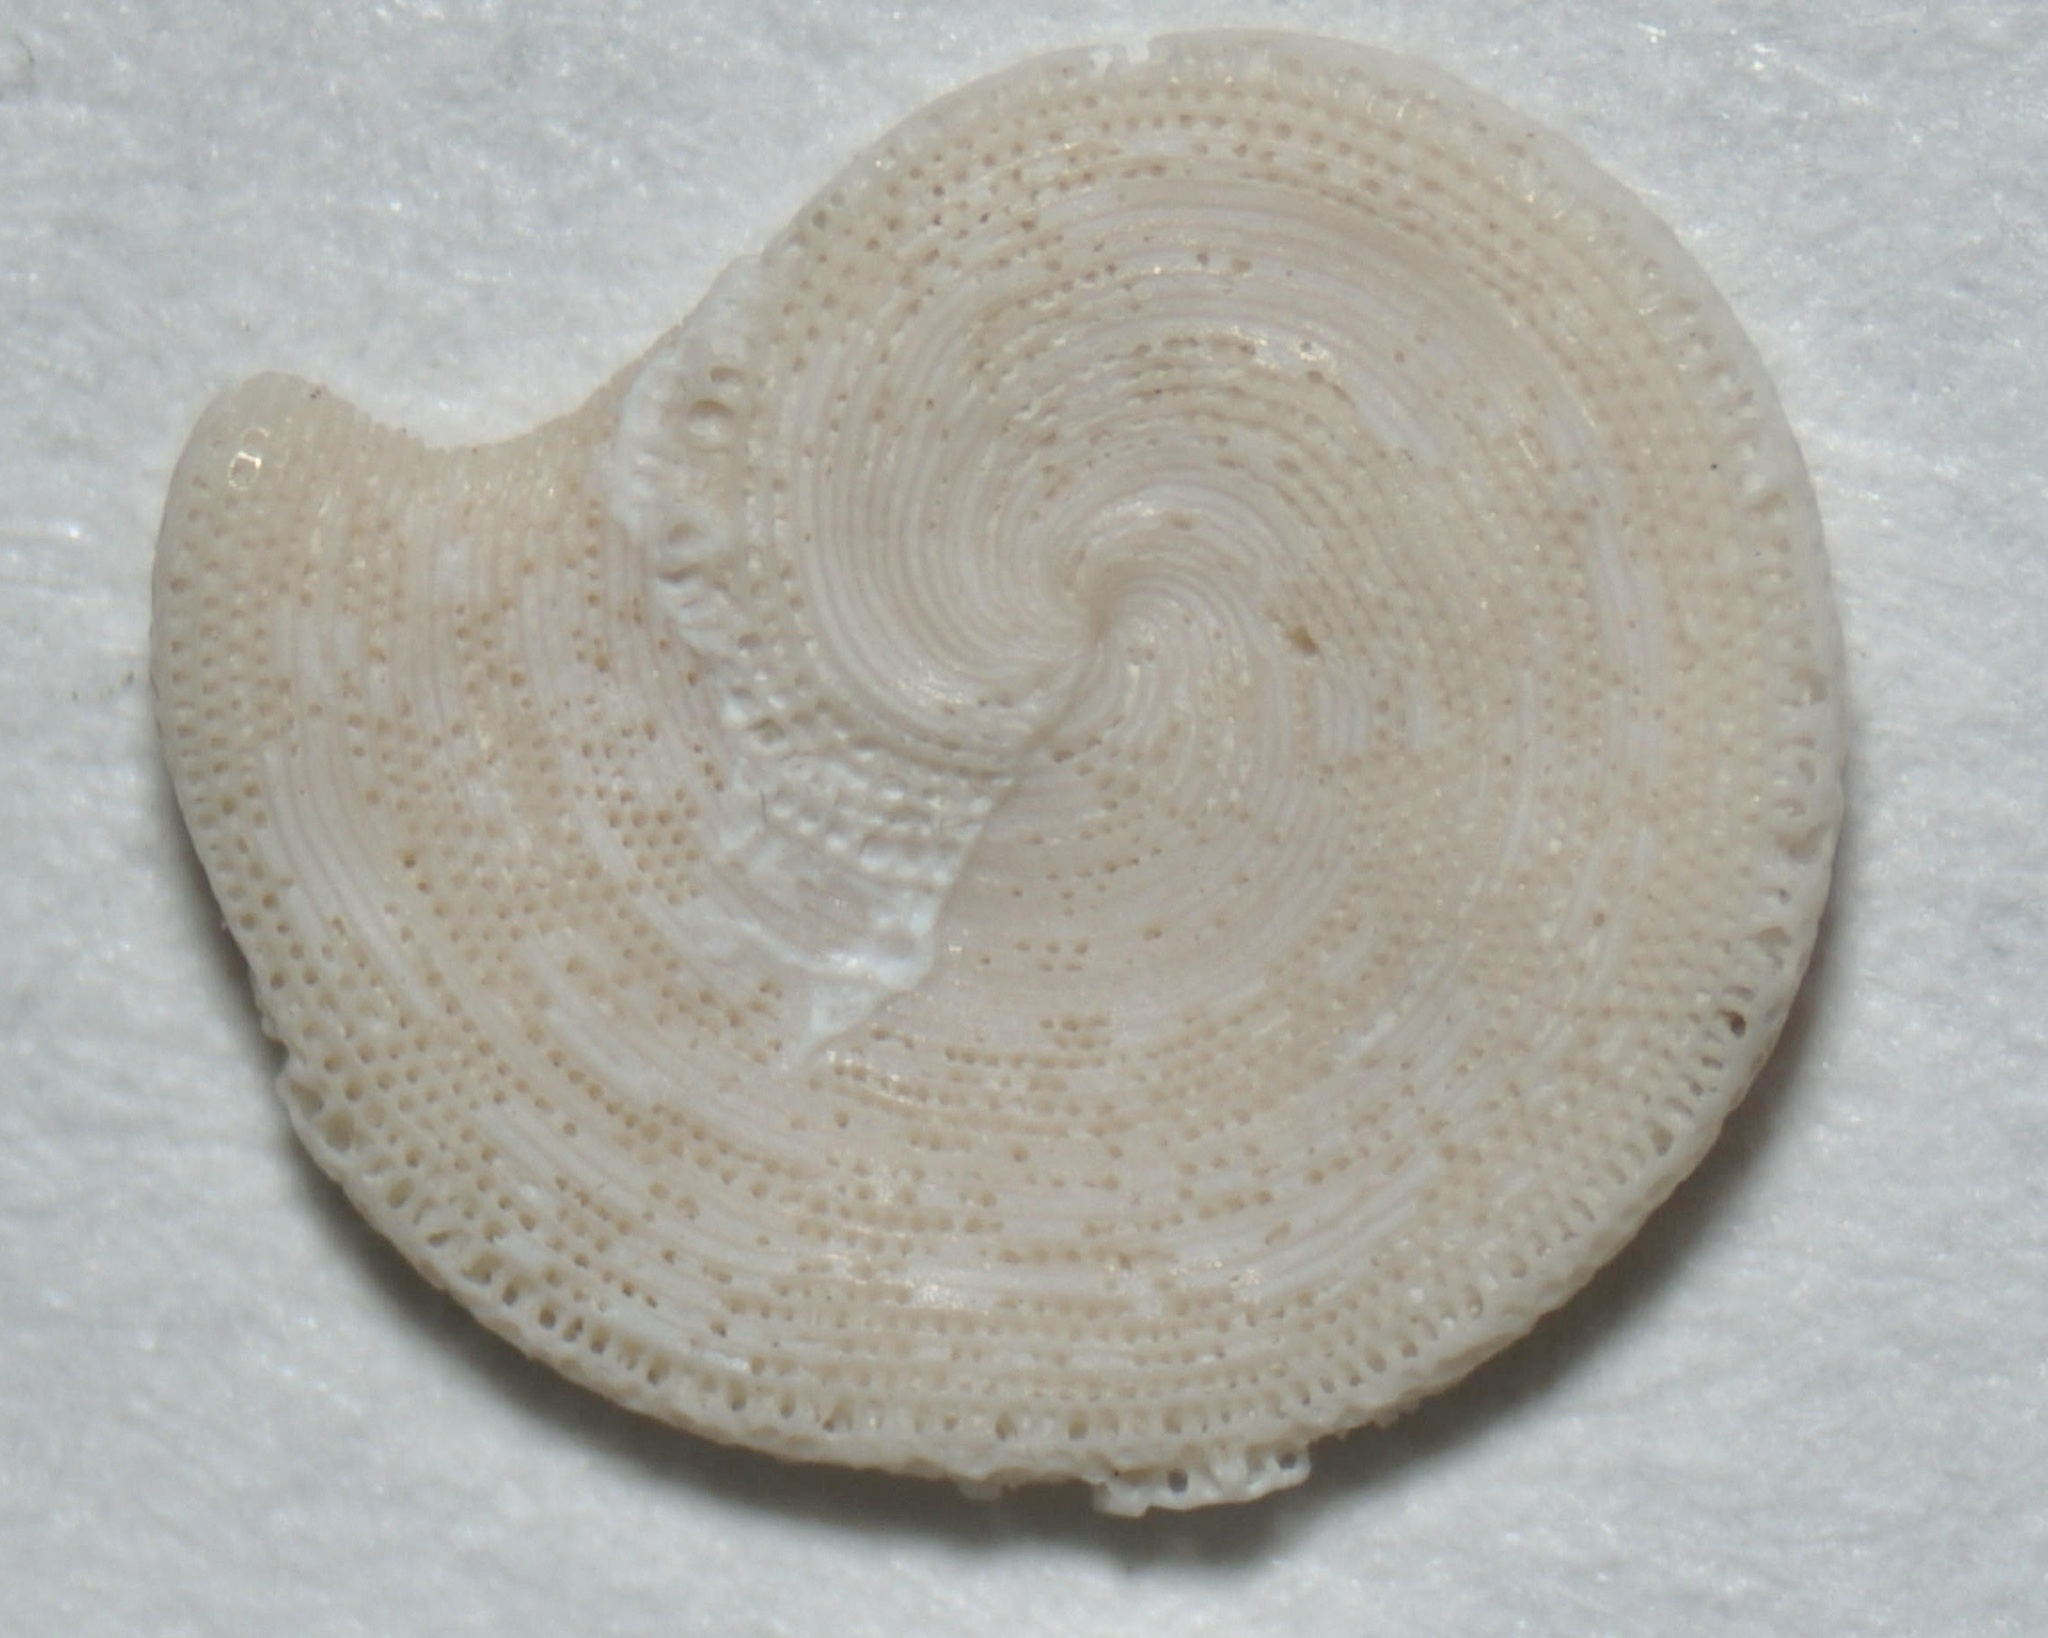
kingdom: Chromista
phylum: Foraminifera
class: Tubothalamea
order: Miliolida
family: Soritidae
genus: Archaias
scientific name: Archaias angulatus
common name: Turtle grass foram
